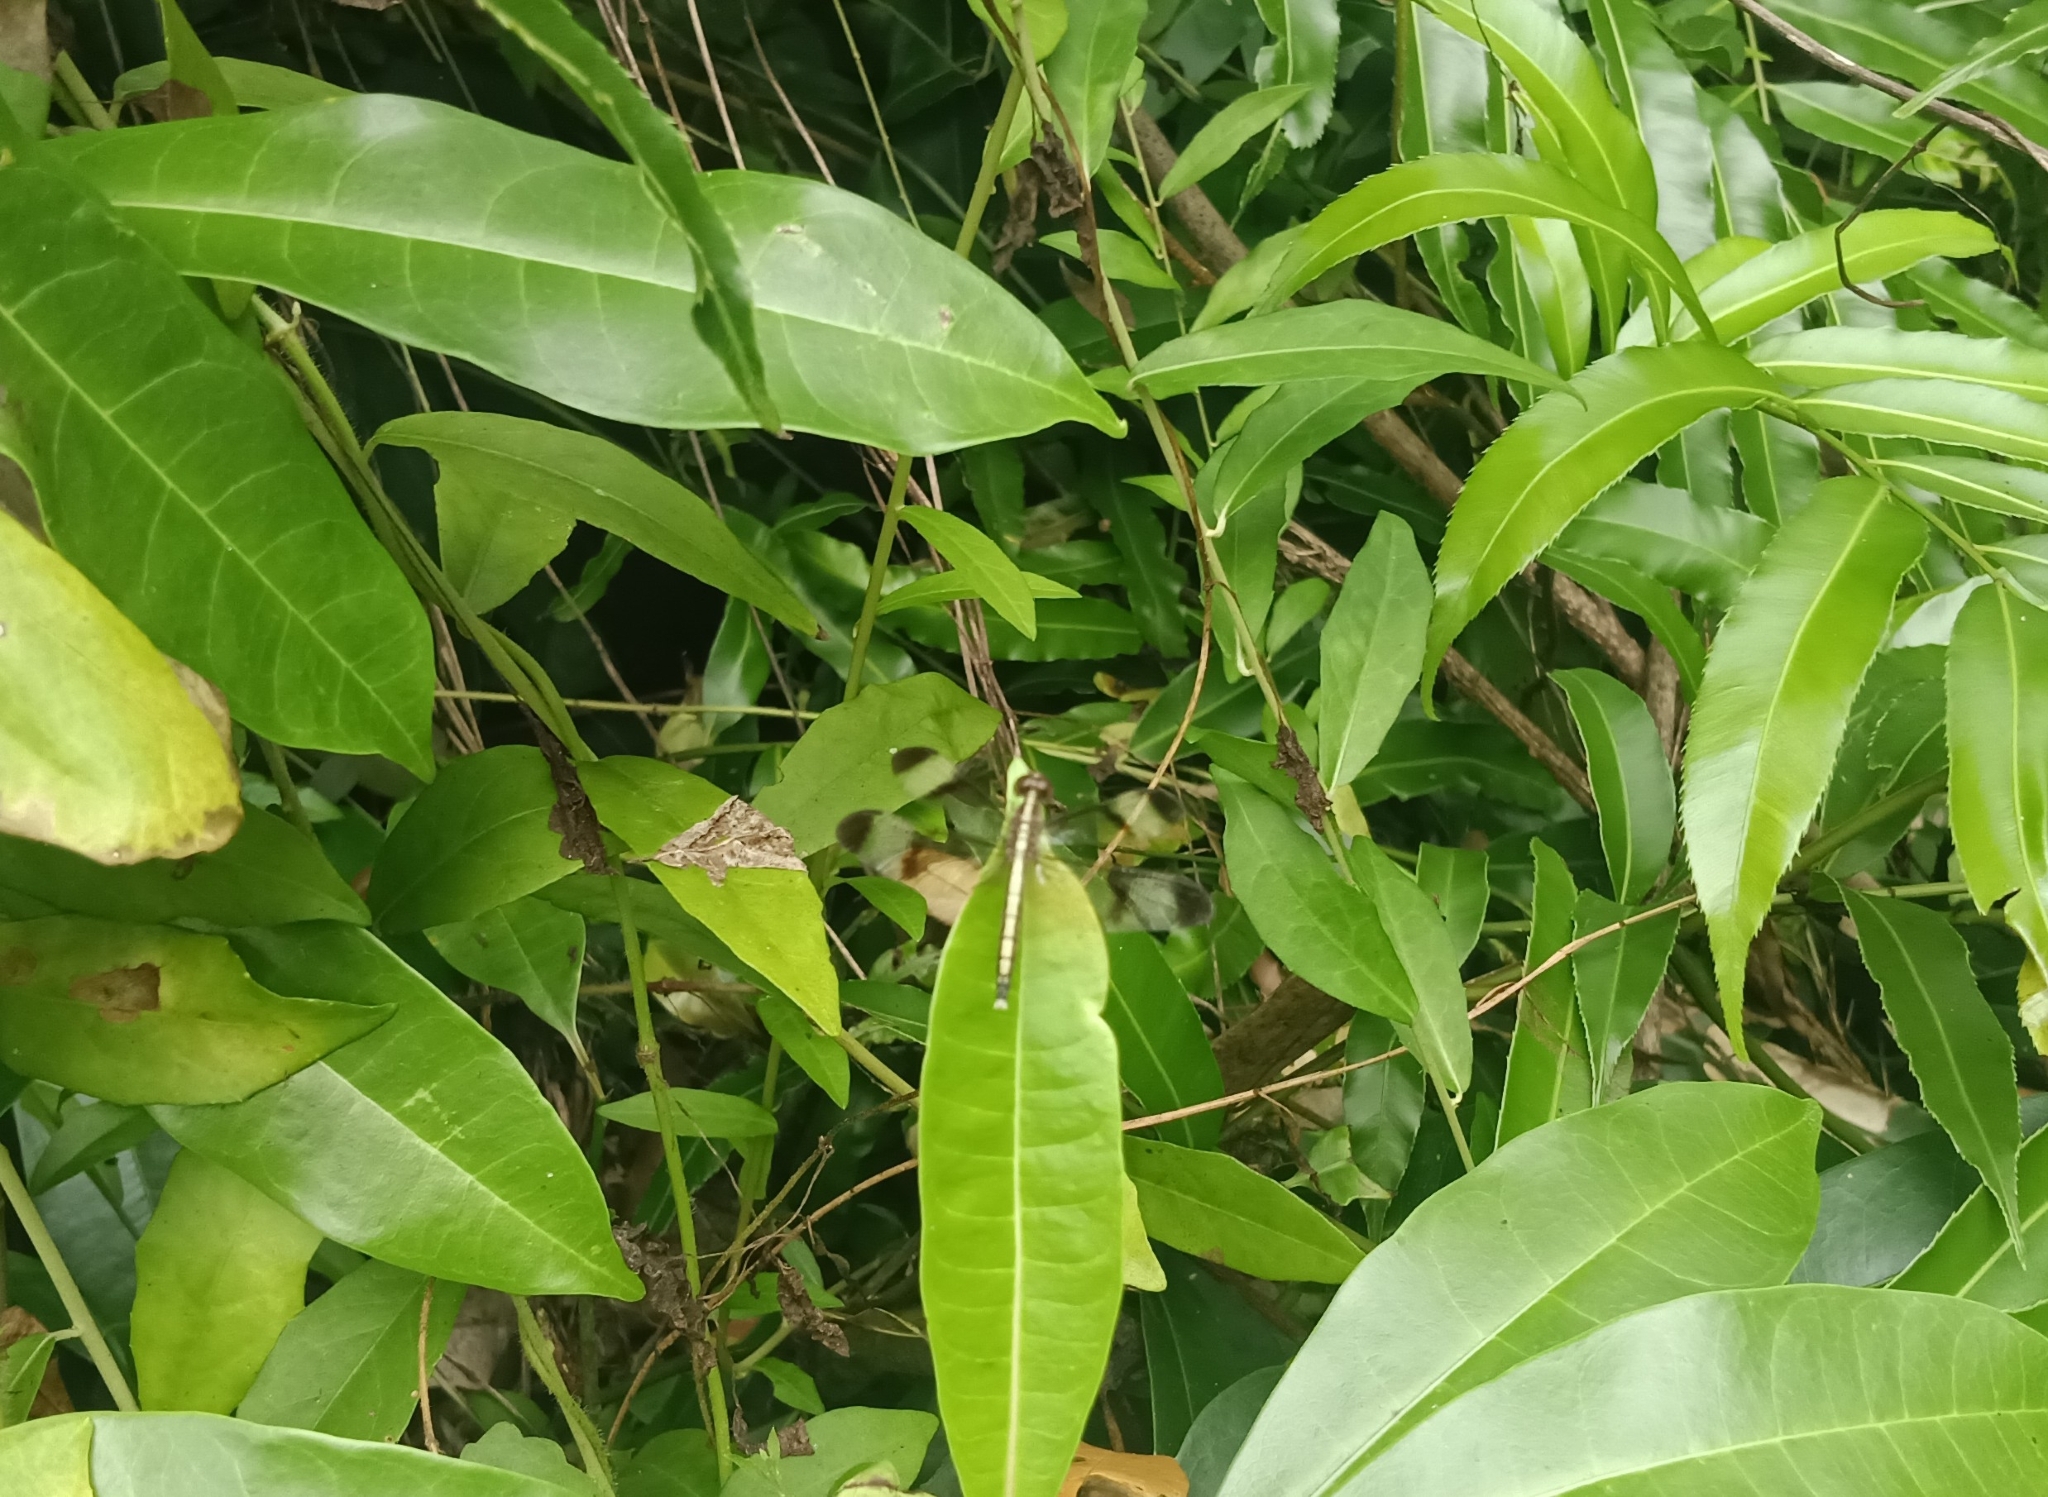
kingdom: Animalia
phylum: Arthropoda
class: Insecta
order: Odonata
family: Libellulidae
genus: Neurothemis
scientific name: Neurothemis tullia
